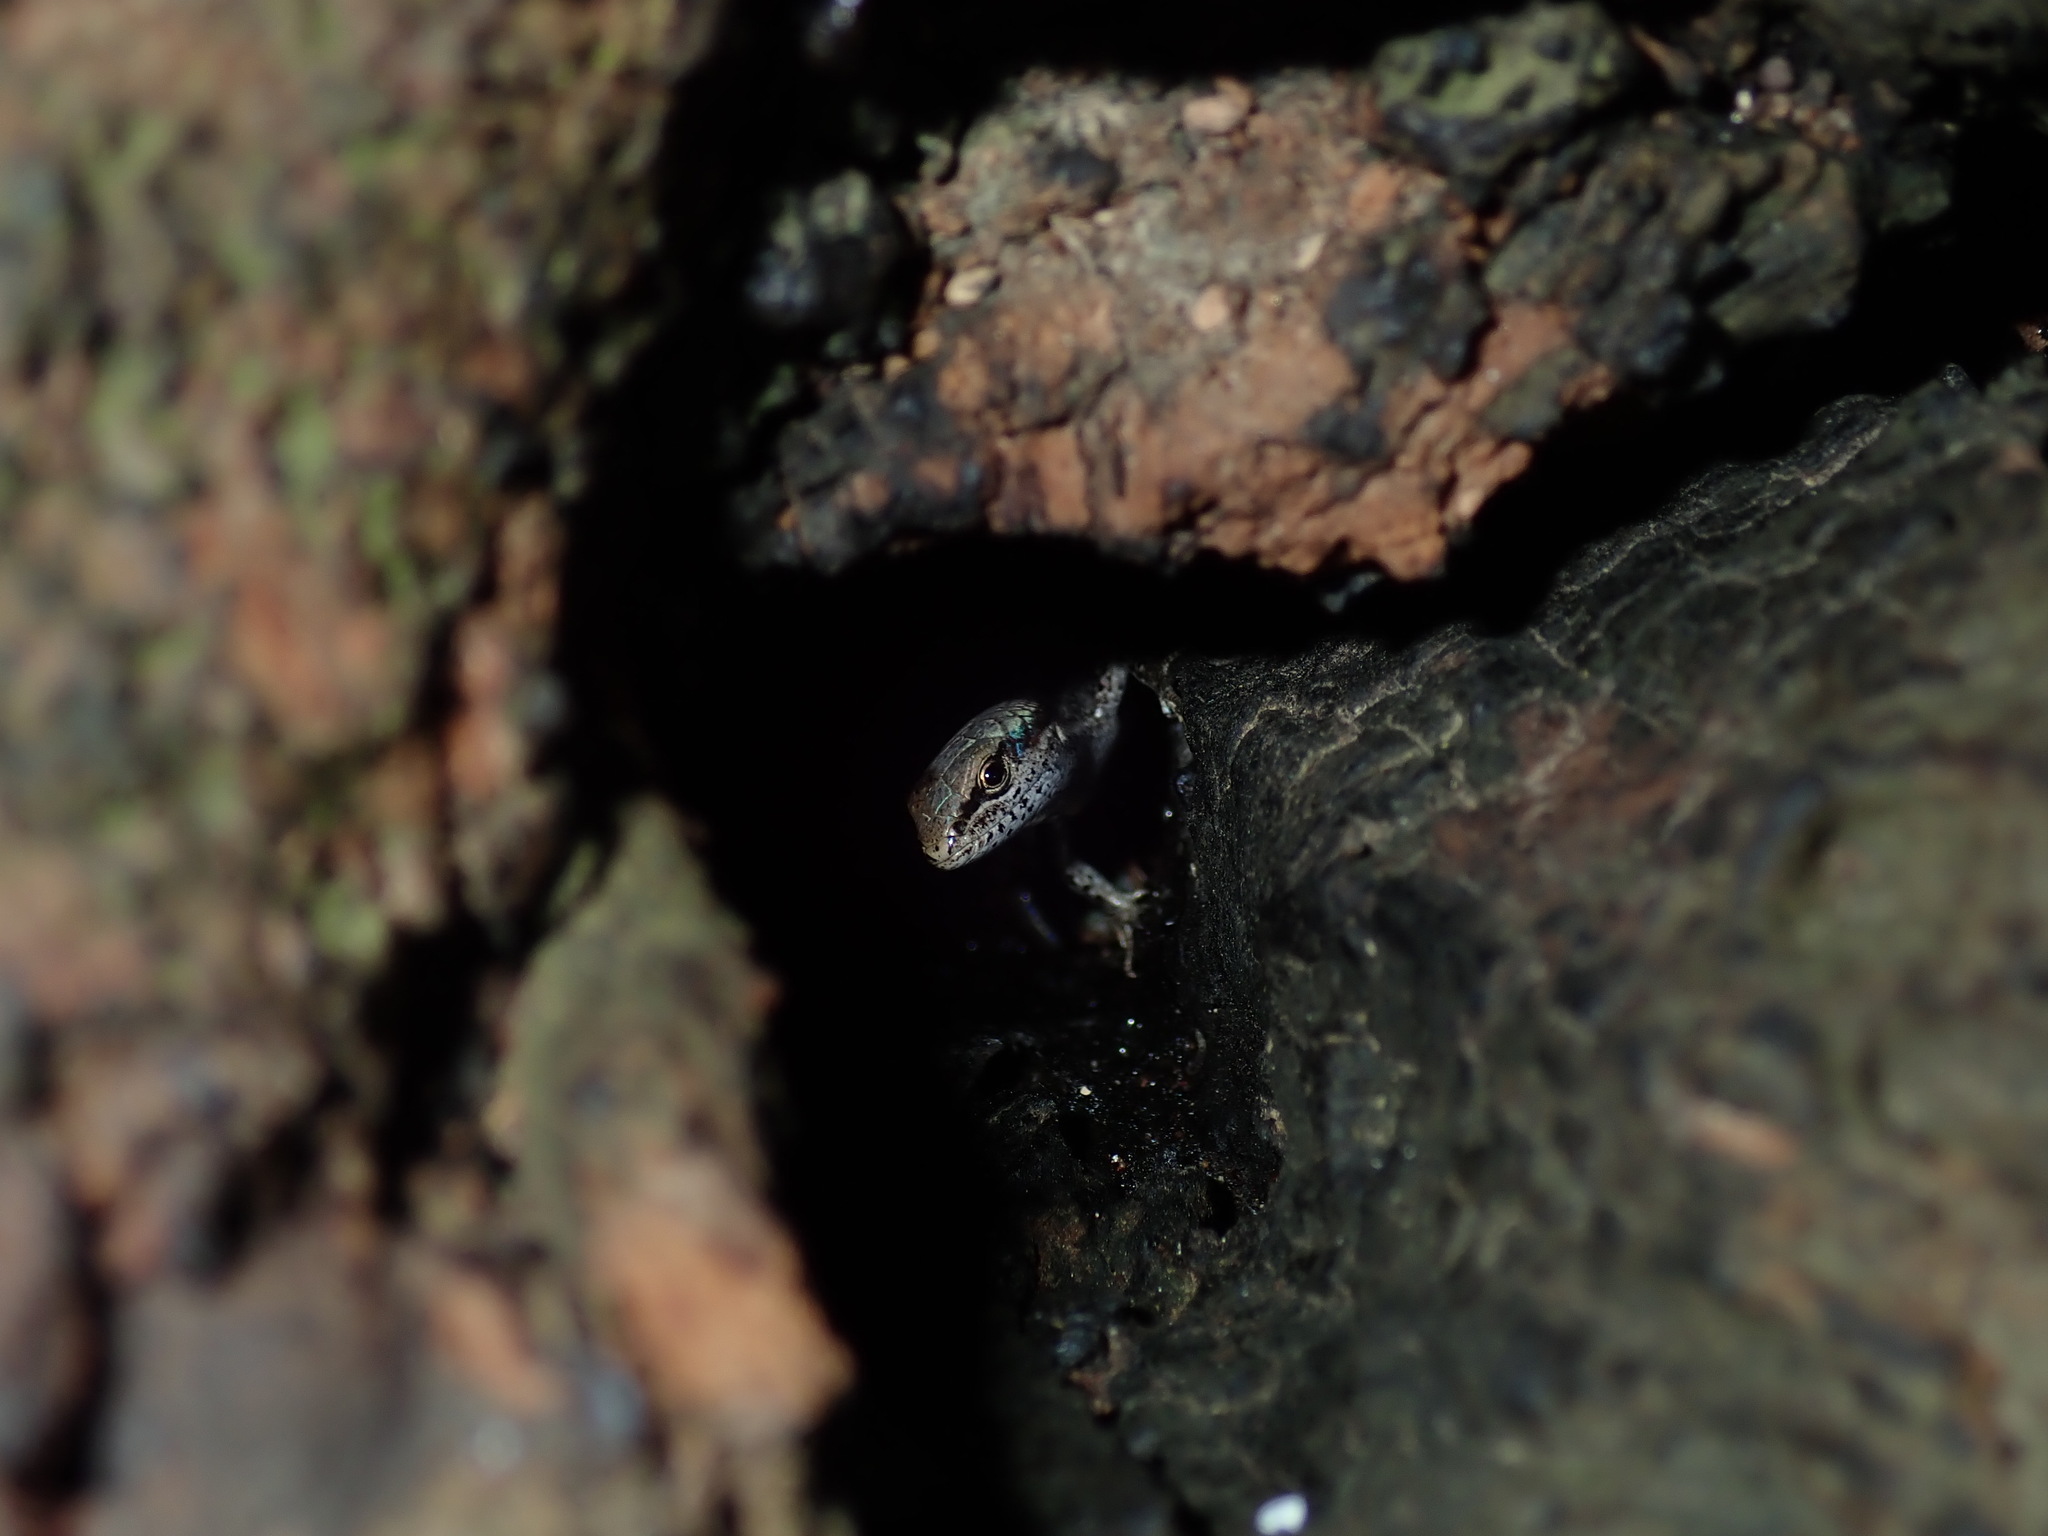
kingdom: Animalia
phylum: Chordata
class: Squamata
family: Scincidae
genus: Lampropholis
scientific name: Lampropholis
